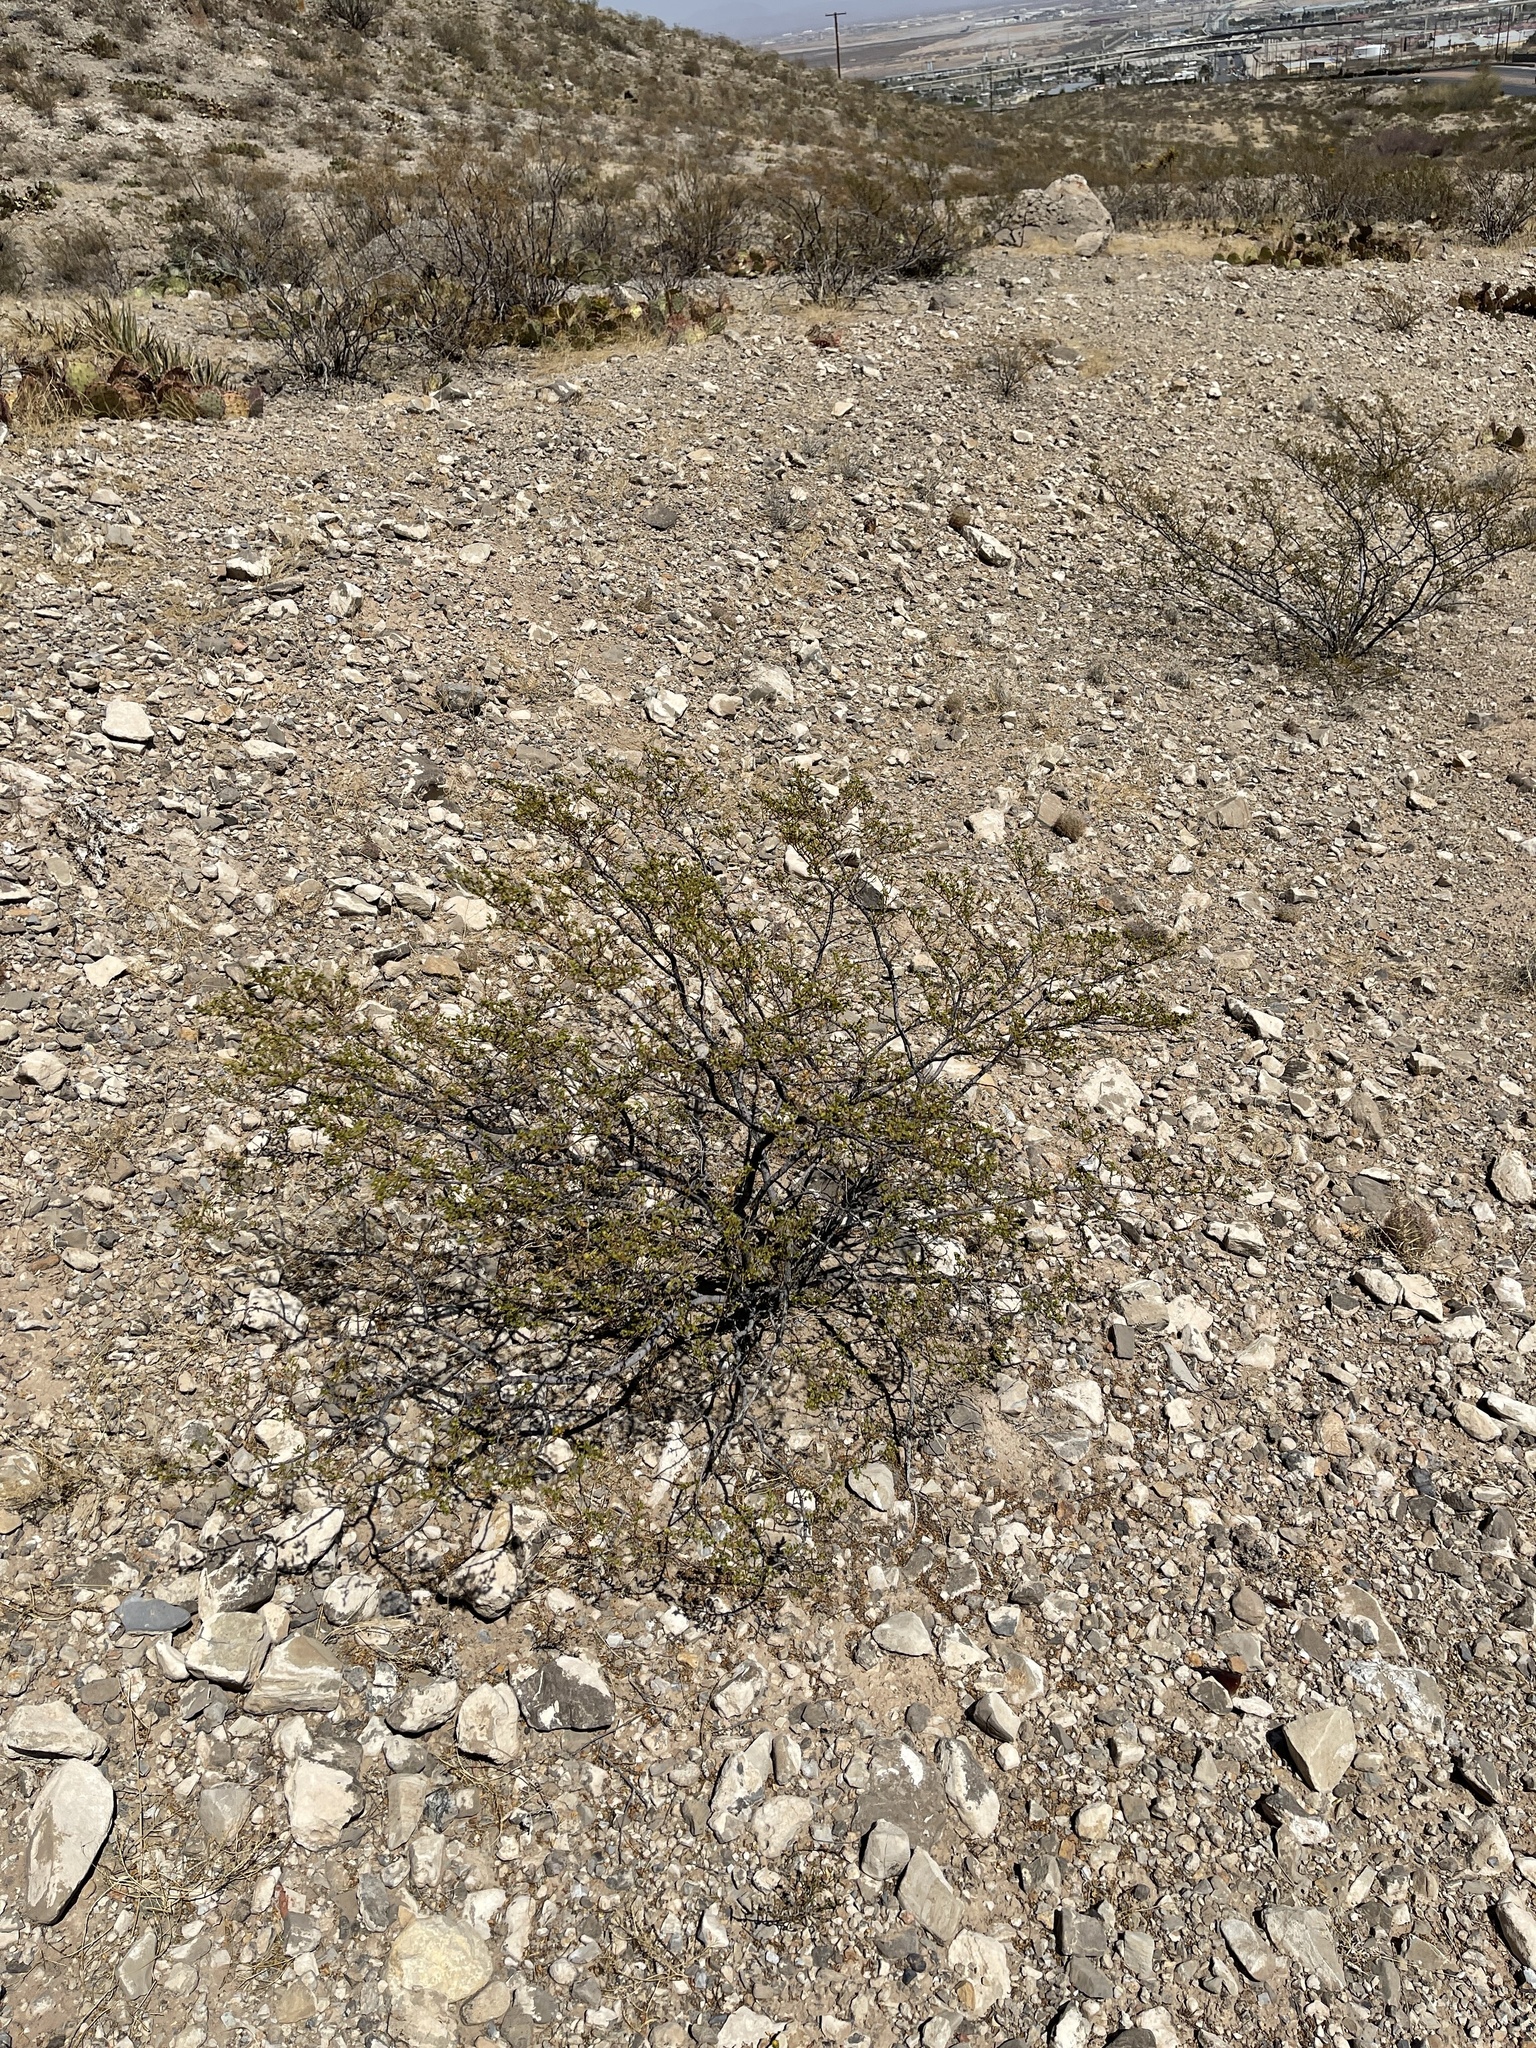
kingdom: Plantae
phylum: Tracheophyta
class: Magnoliopsida
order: Zygophyllales
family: Zygophyllaceae
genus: Larrea
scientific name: Larrea tridentata
